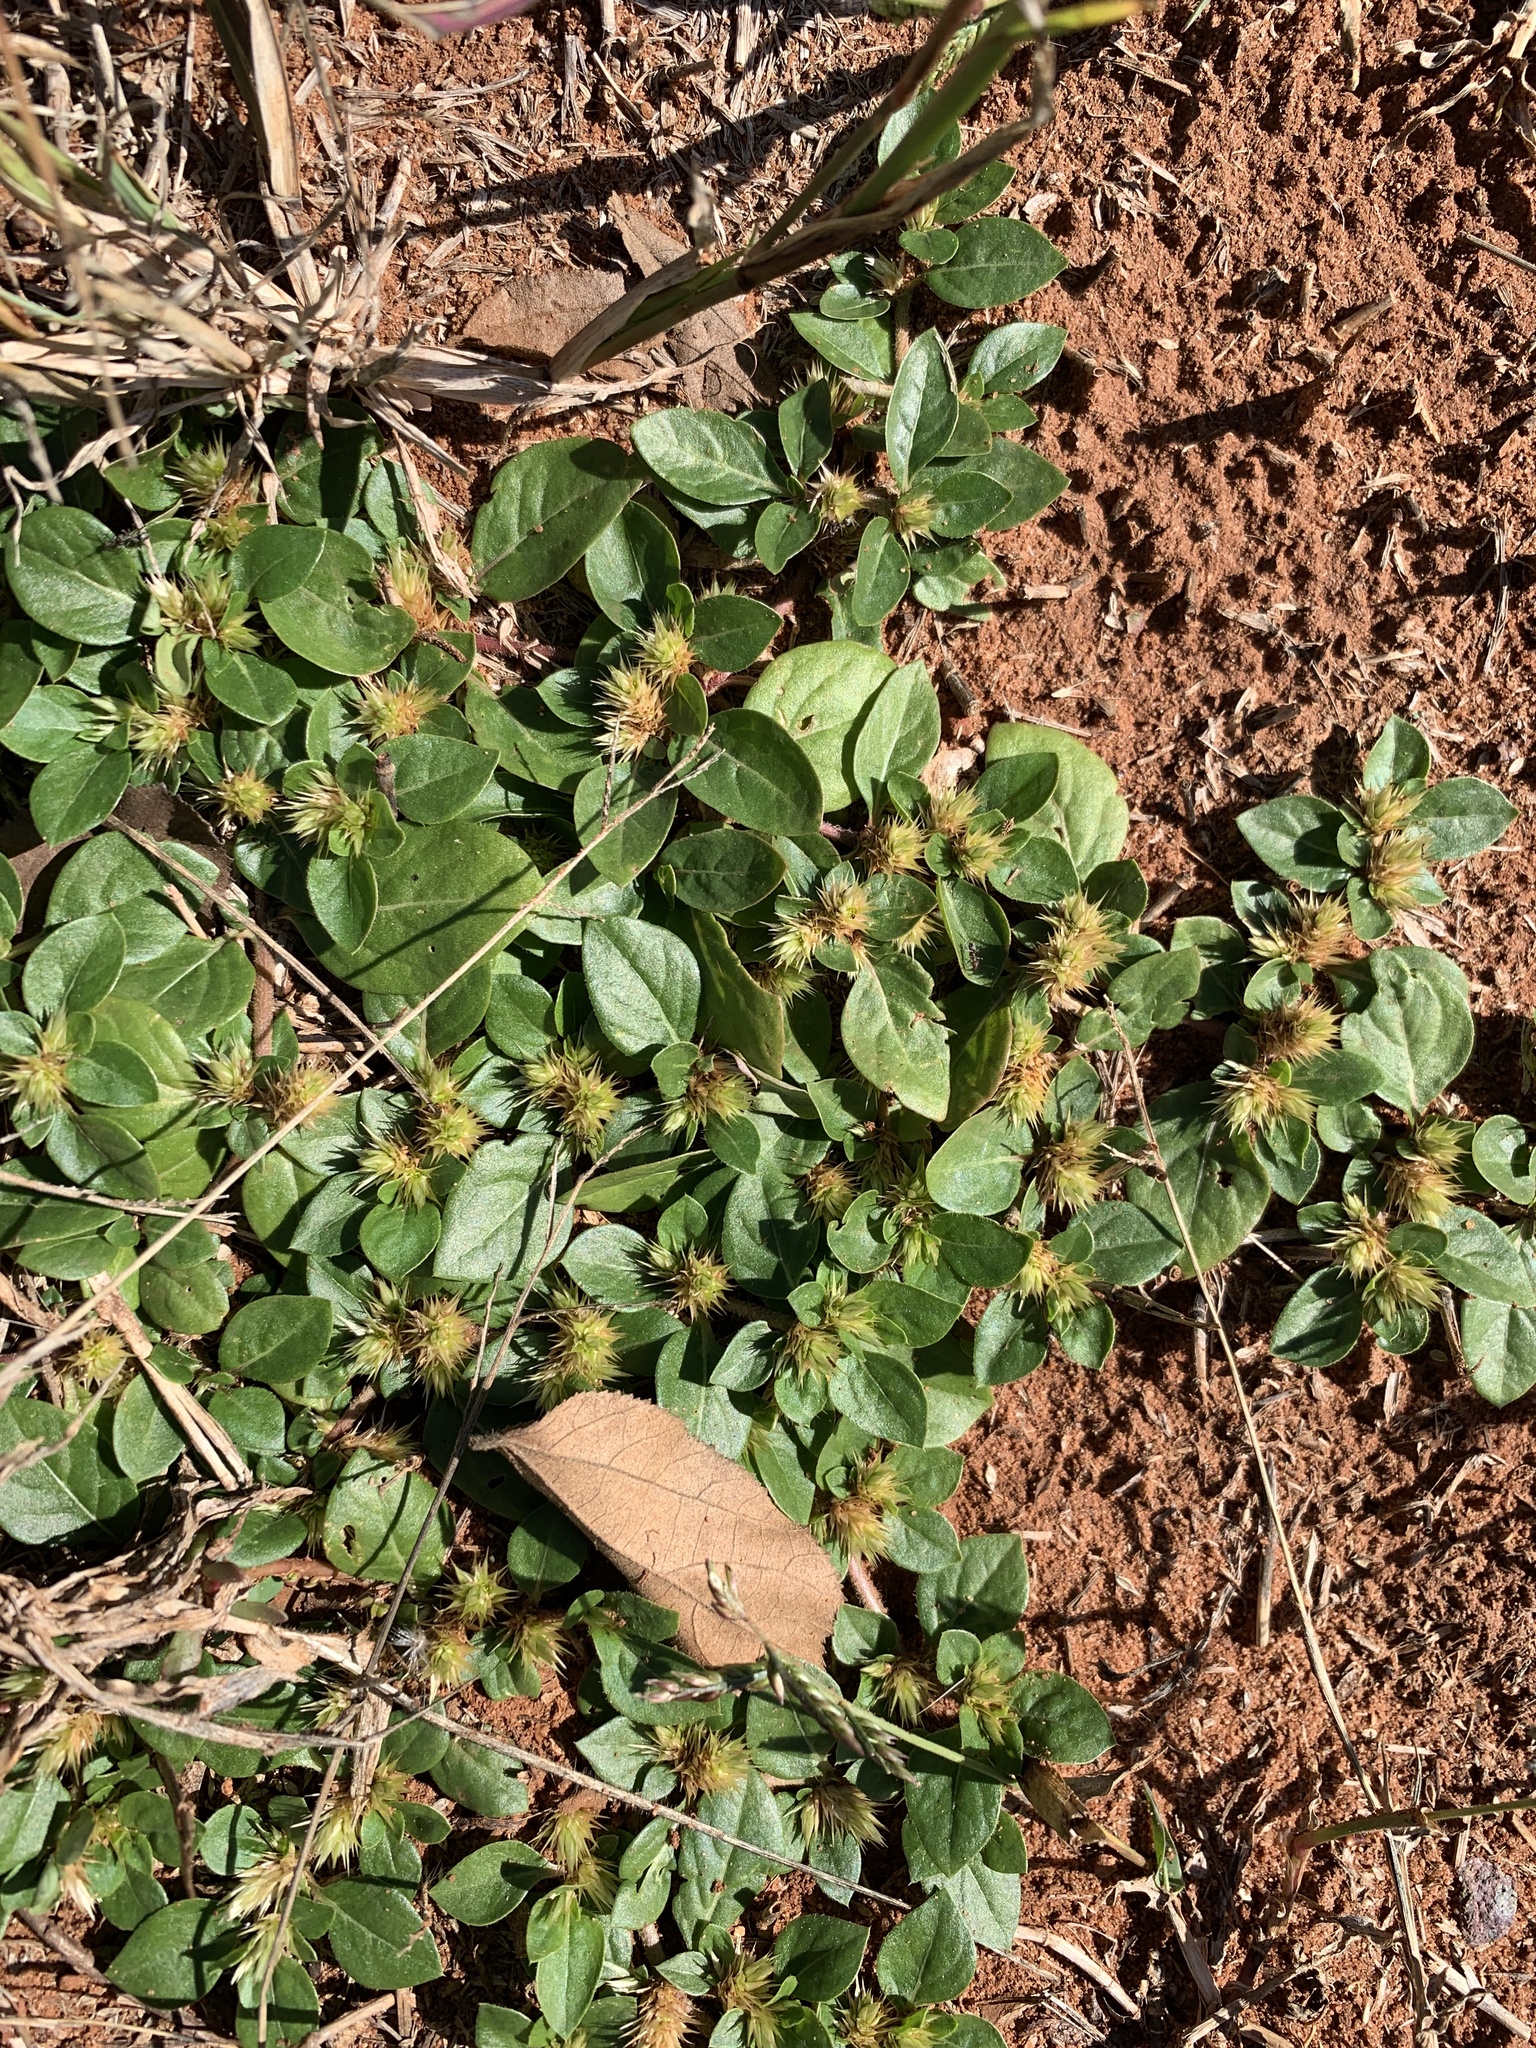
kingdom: Plantae
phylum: Tracheophyta
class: Magnoliopsida
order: Caryophyllales
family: Amaranthaceae
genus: Alternanthera
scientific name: Alternanthera pungens
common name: Khakiweed
